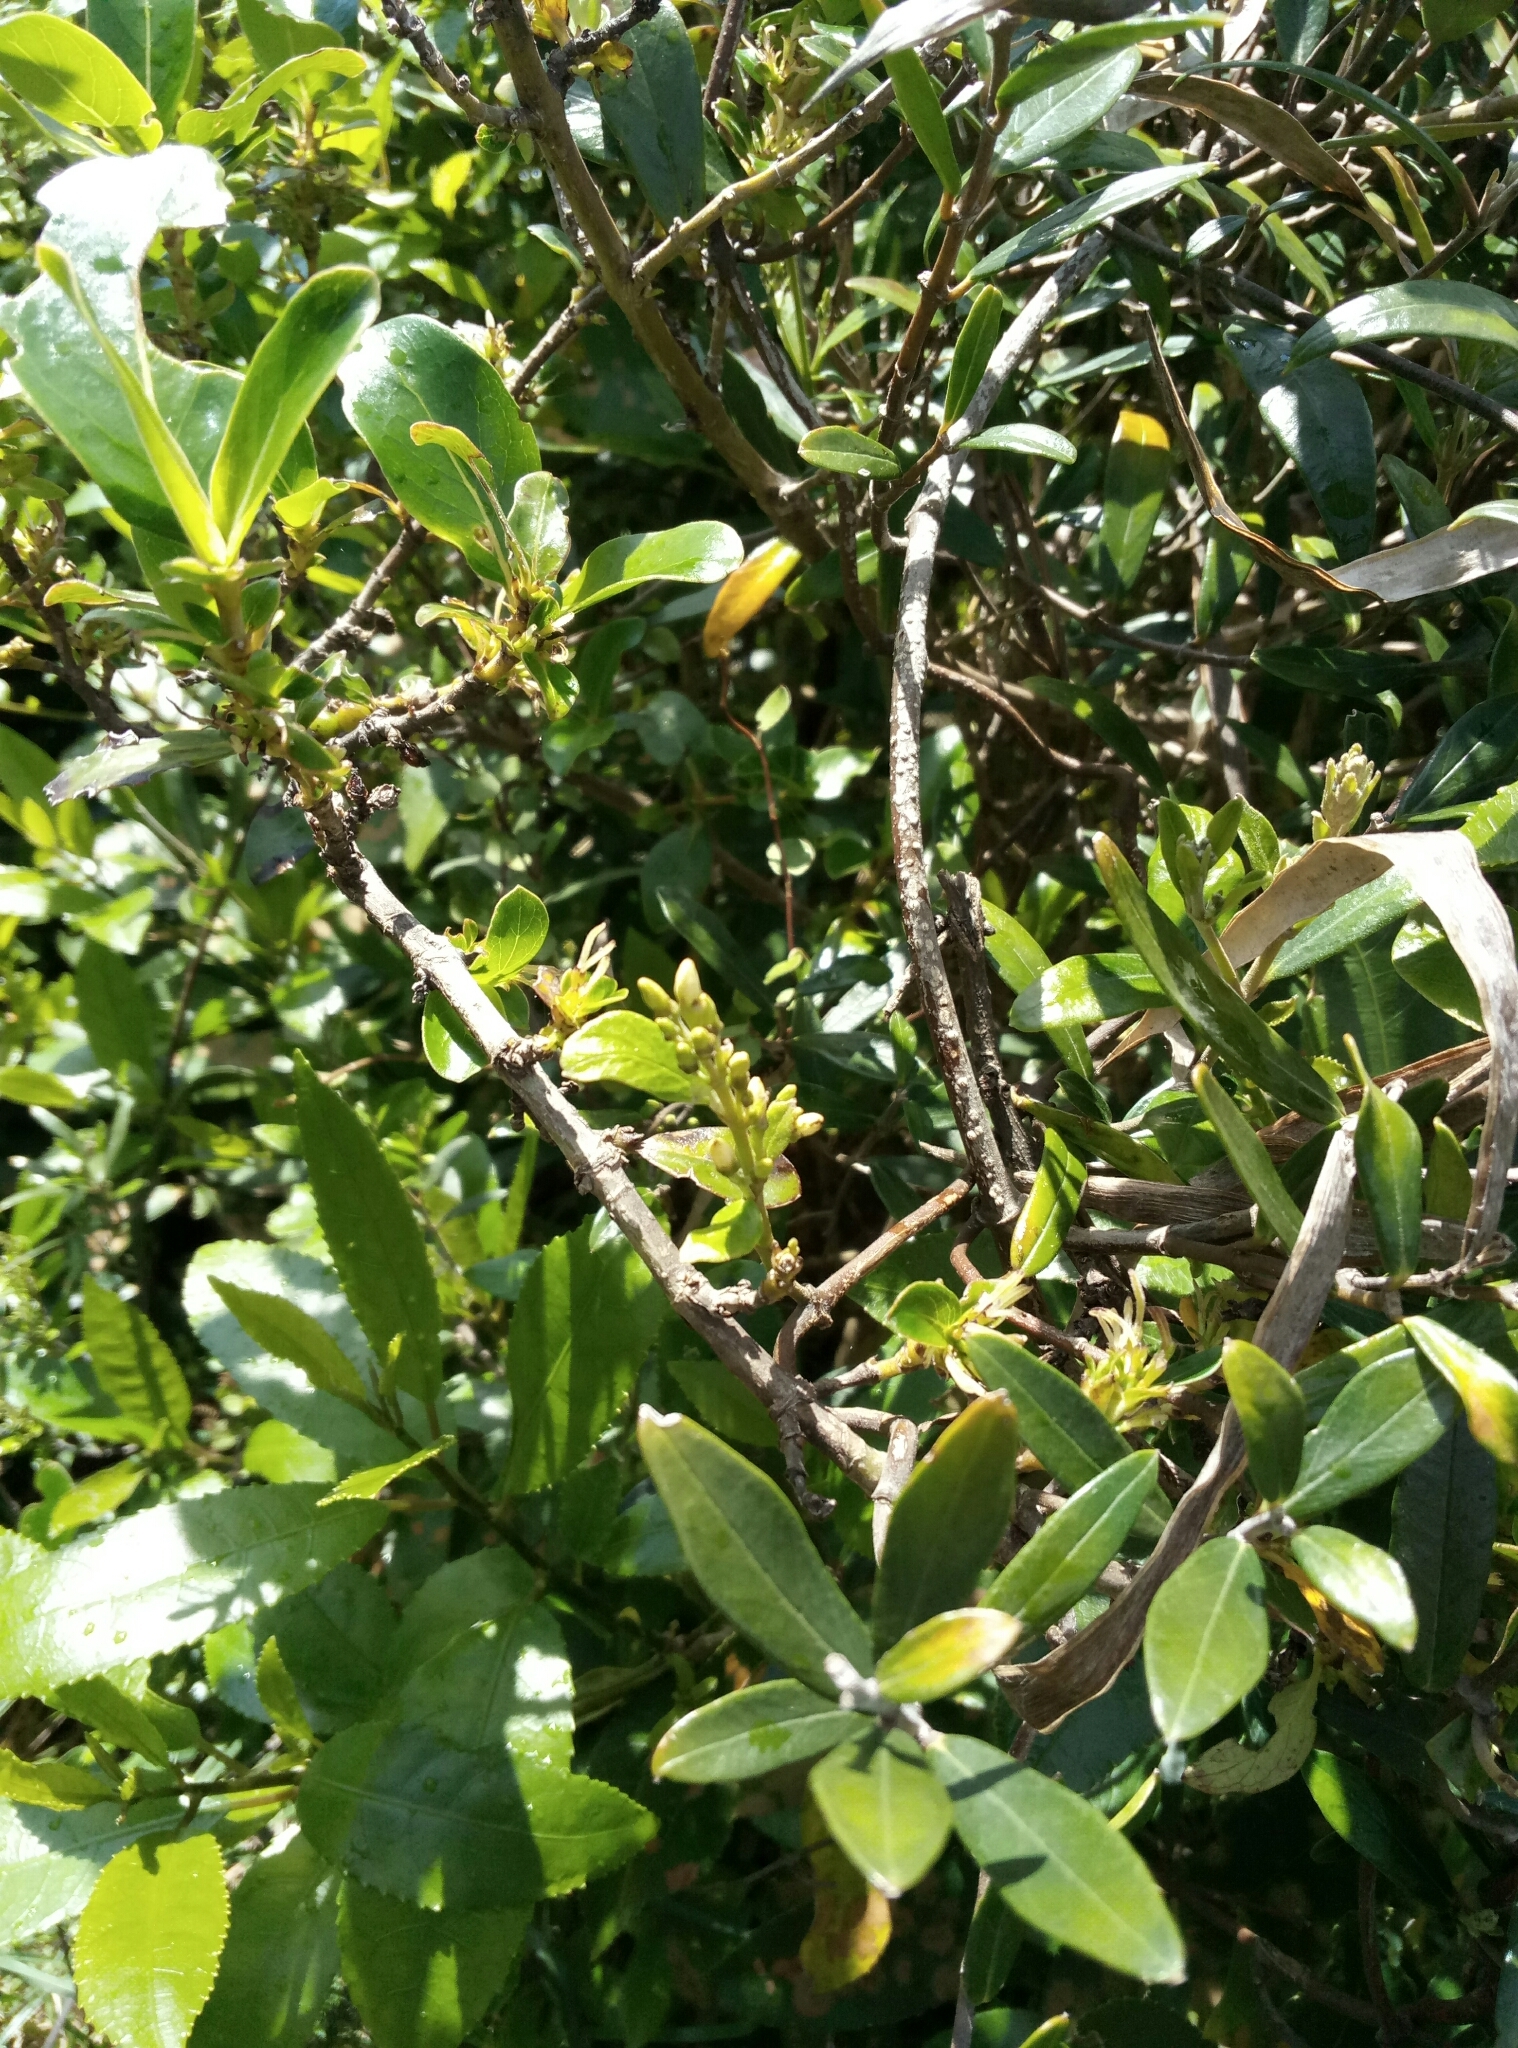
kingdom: Plantae
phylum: Tracheophyta
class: Magnoliopsida
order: Gentianales
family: Apocynaceae
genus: Parsonsia
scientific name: Parsonsia heterophylla
